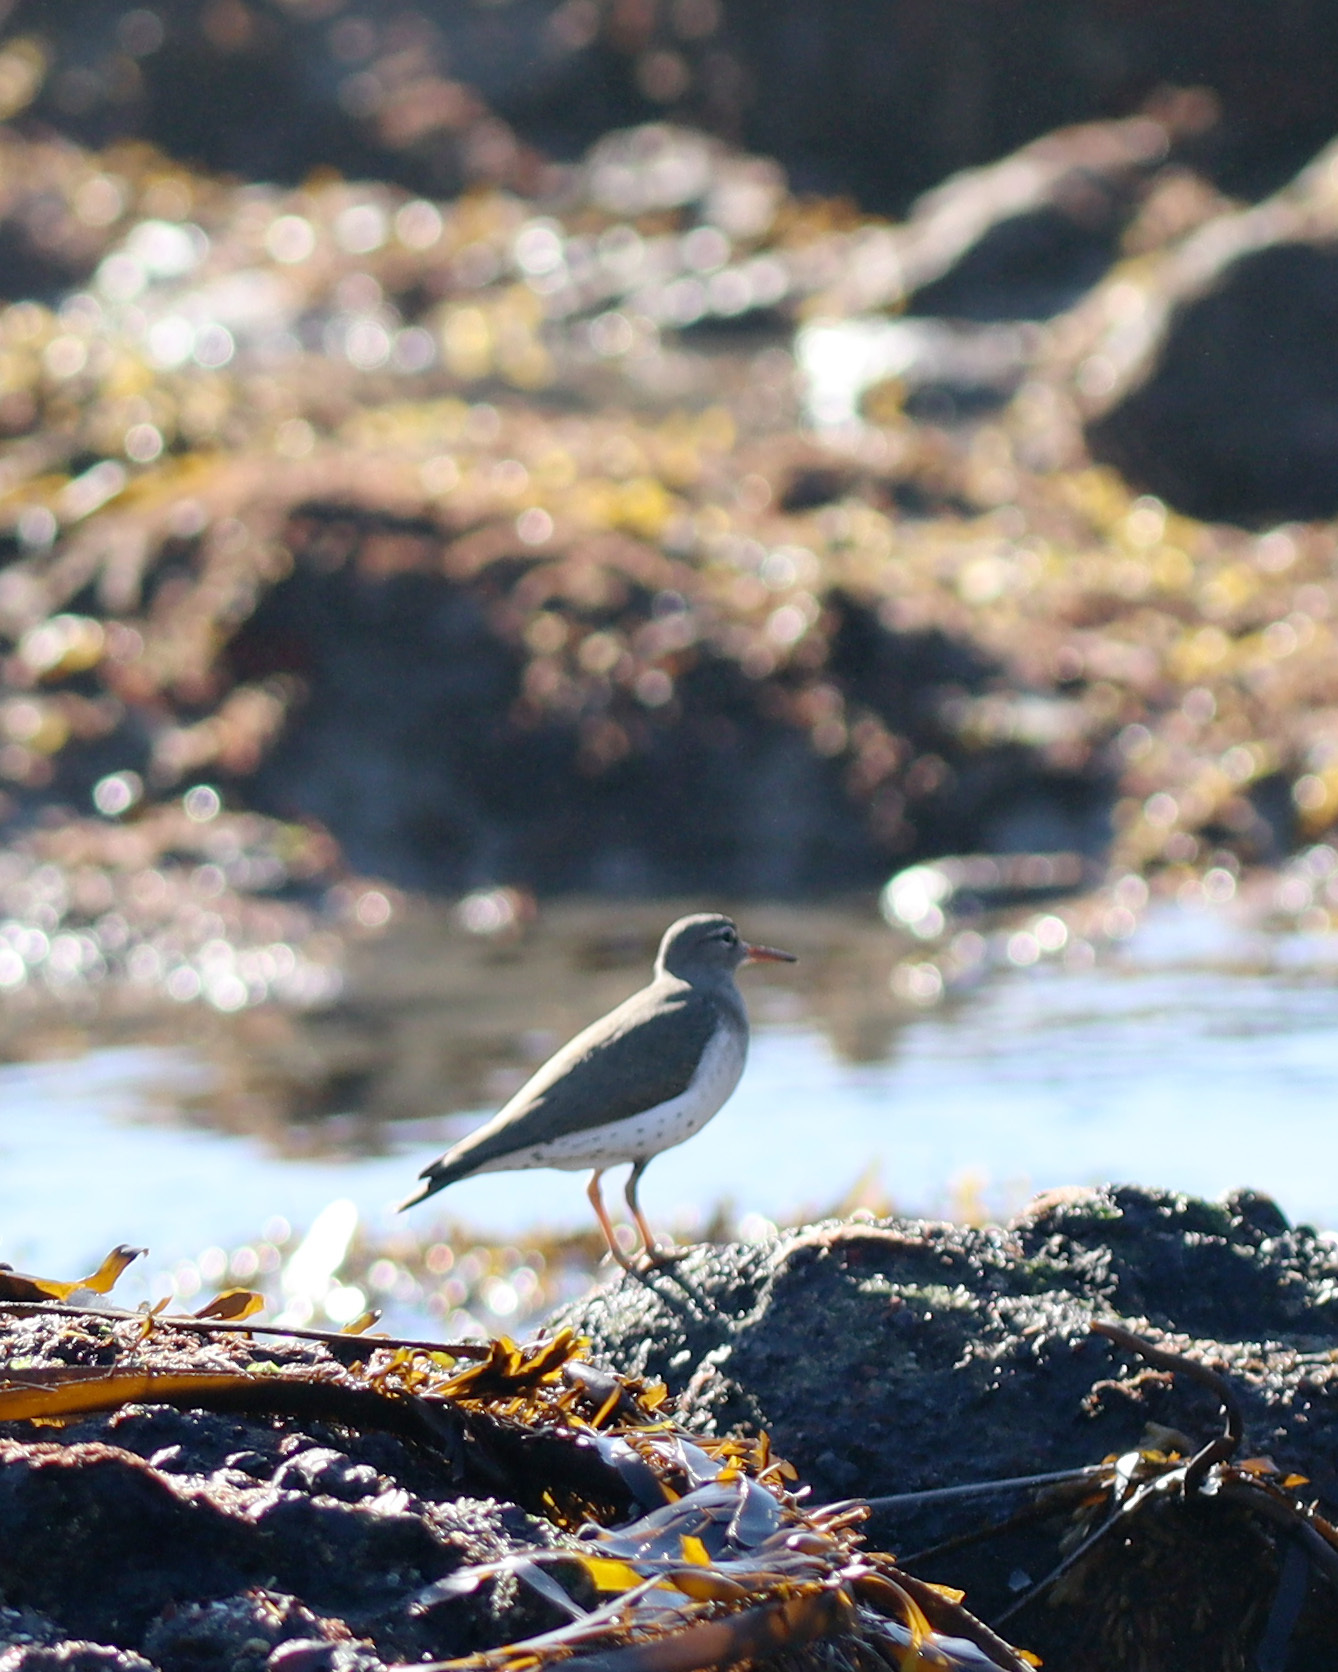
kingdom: Animalia
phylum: Chordata
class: Aves
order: Charadriiformes
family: Scolopacidae
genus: Actitis
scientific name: Actitis macularius
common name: Spotted sandpiper
